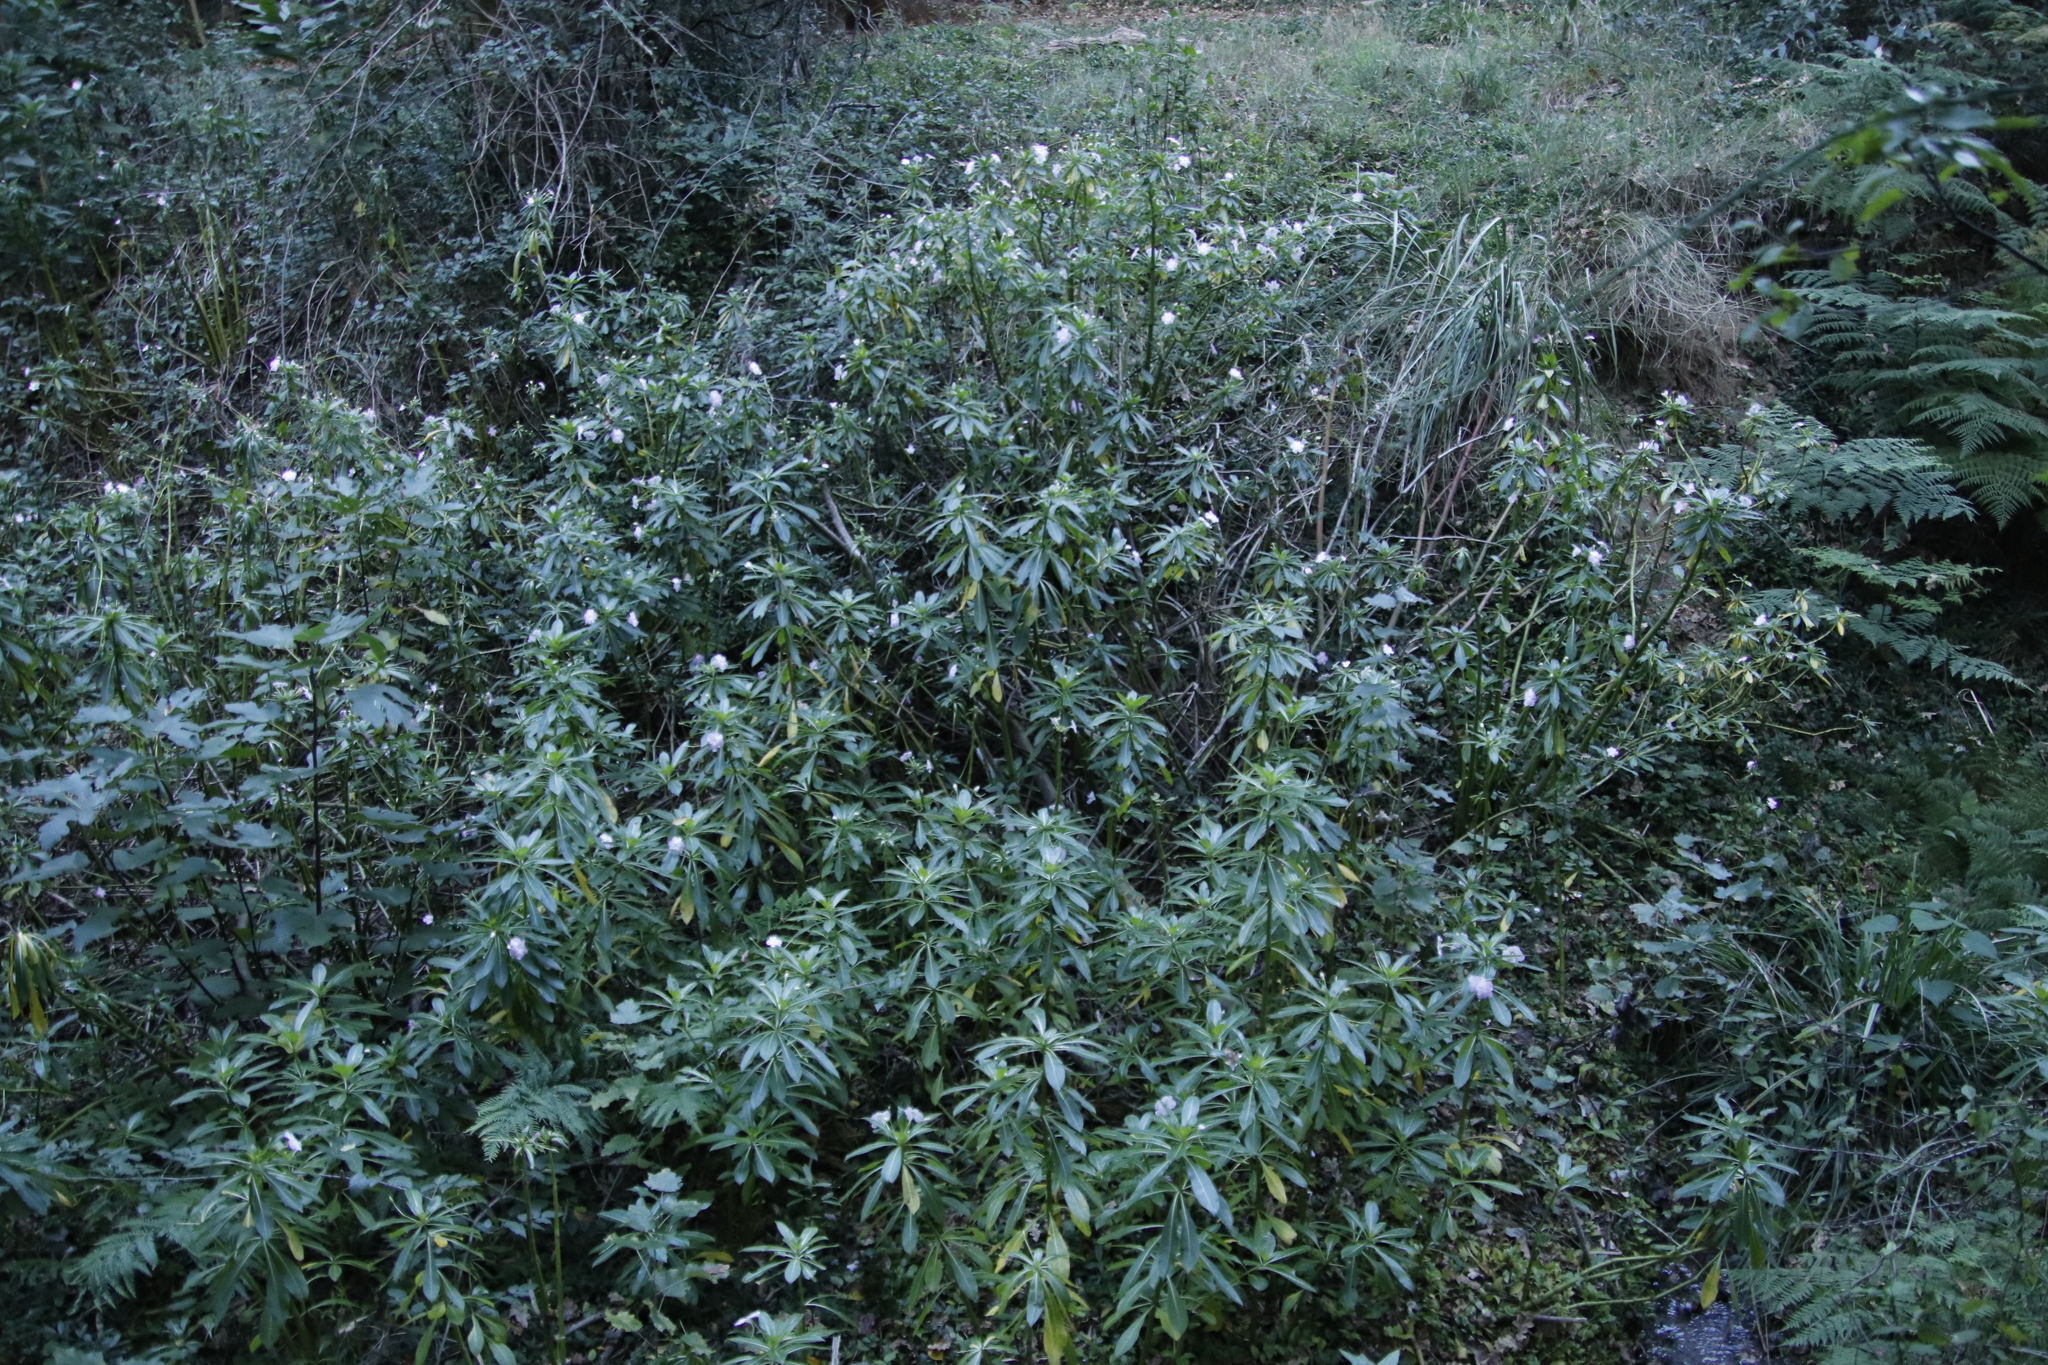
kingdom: Plantae
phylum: Tracheophyta
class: Magnoliopsida
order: Ericales
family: Balsaminaceae
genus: Impatiens
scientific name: Impatiens sodenii
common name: Oliver's touch-me-not
